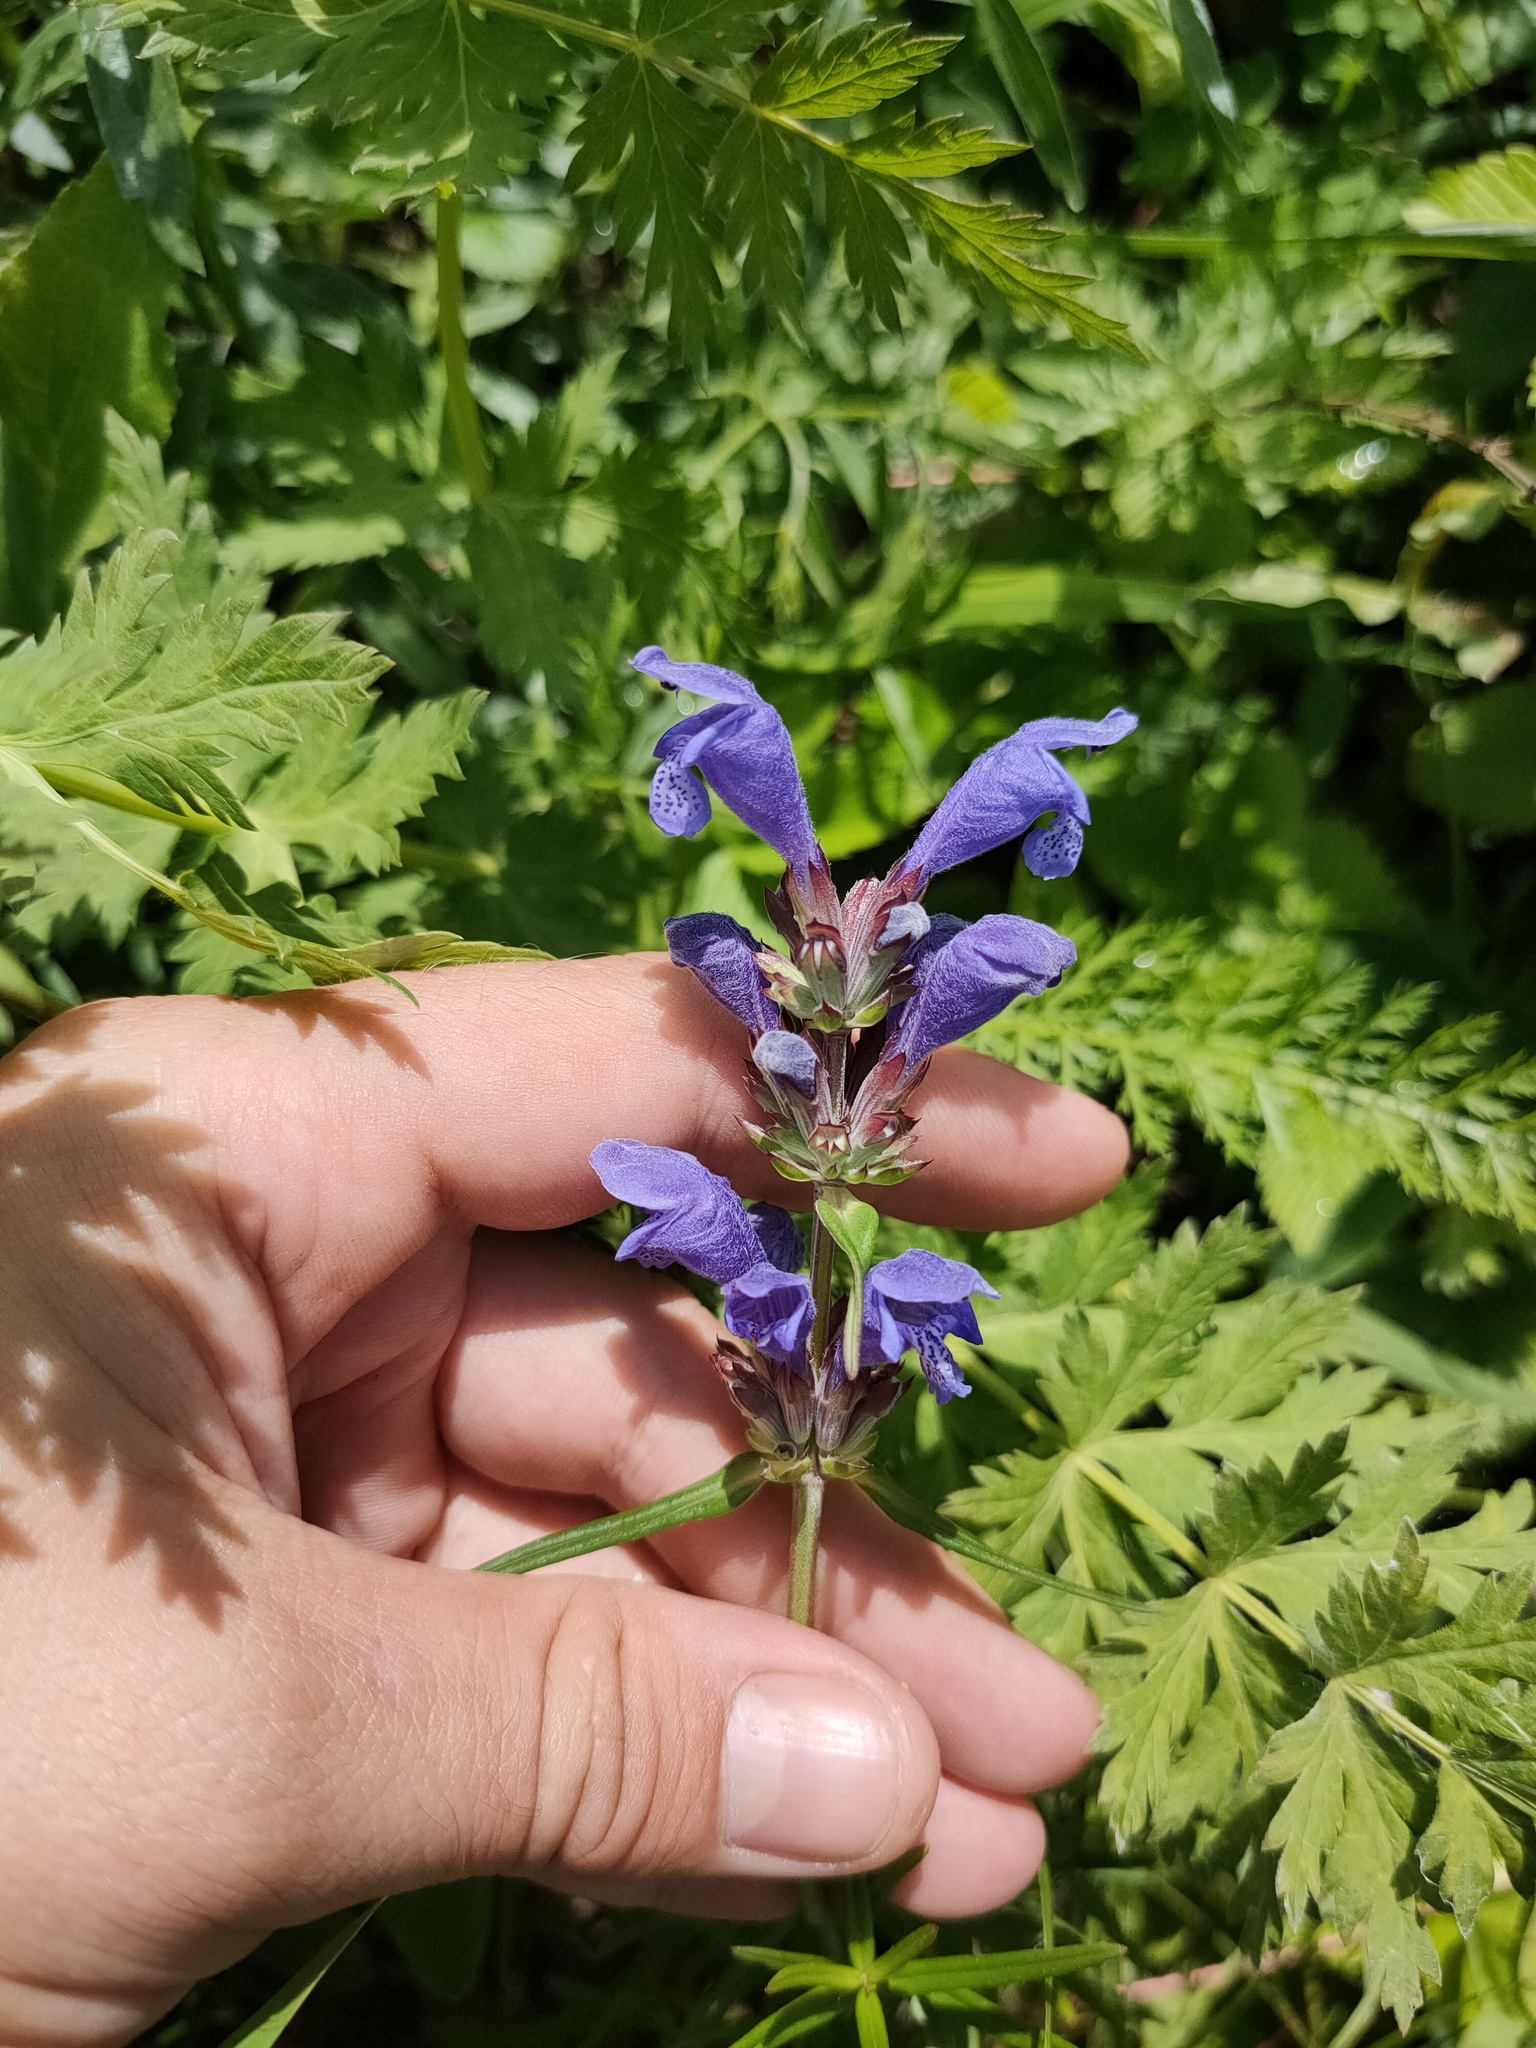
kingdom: Plantae
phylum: Tracheophyta
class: Magnoliopsida
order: Lamiales
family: Lamiaceae
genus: Dracocephalum
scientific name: Dracocephalum ruyschiana
